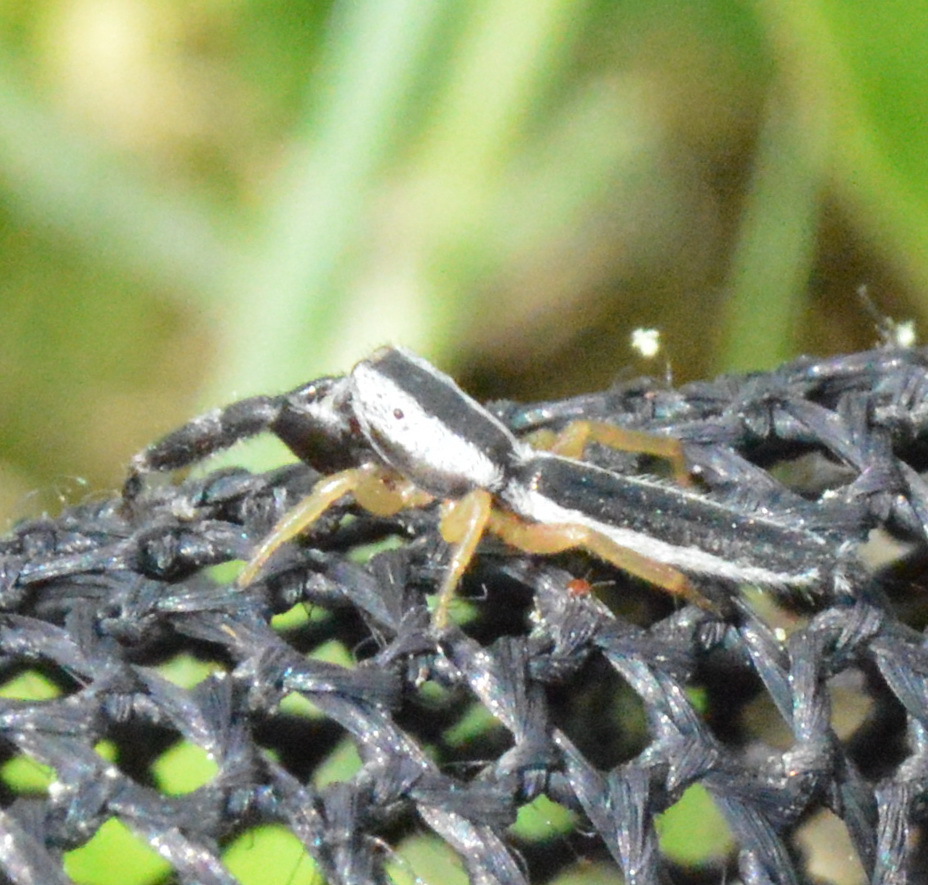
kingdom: Animalia
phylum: Arthropoda
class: Arachnida
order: Araneae
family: Salticidae
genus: Marpissa
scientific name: Marpissa pikei
